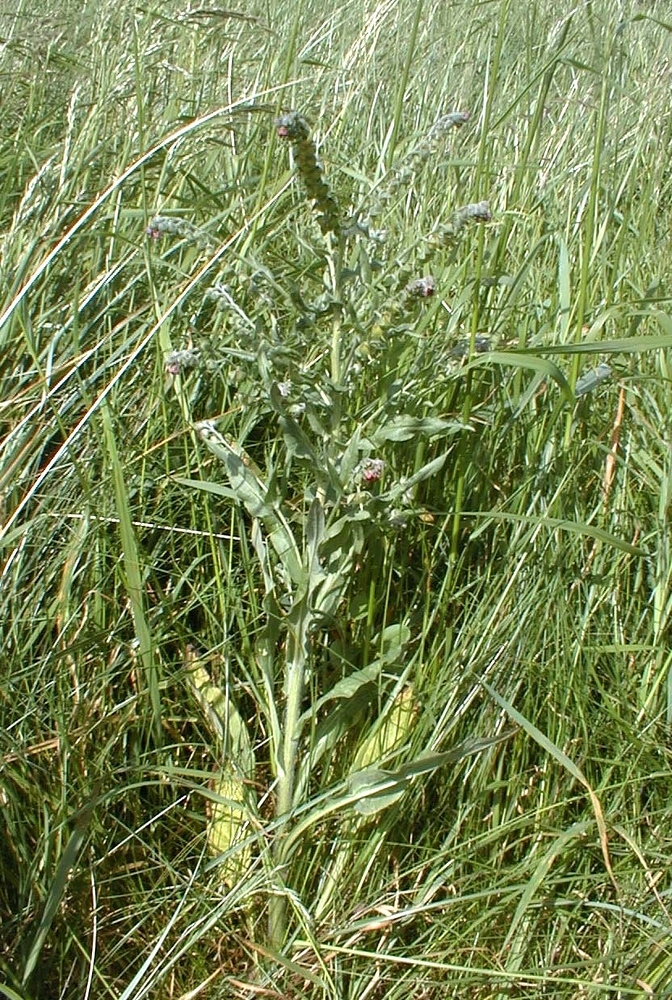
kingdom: Plantae
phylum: Tracheophyta
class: Magnoliopsida
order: Boraginales
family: Boraginaceae
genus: Cynoglossum
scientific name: Cynoglossum officinale
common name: Hound's-tongue
